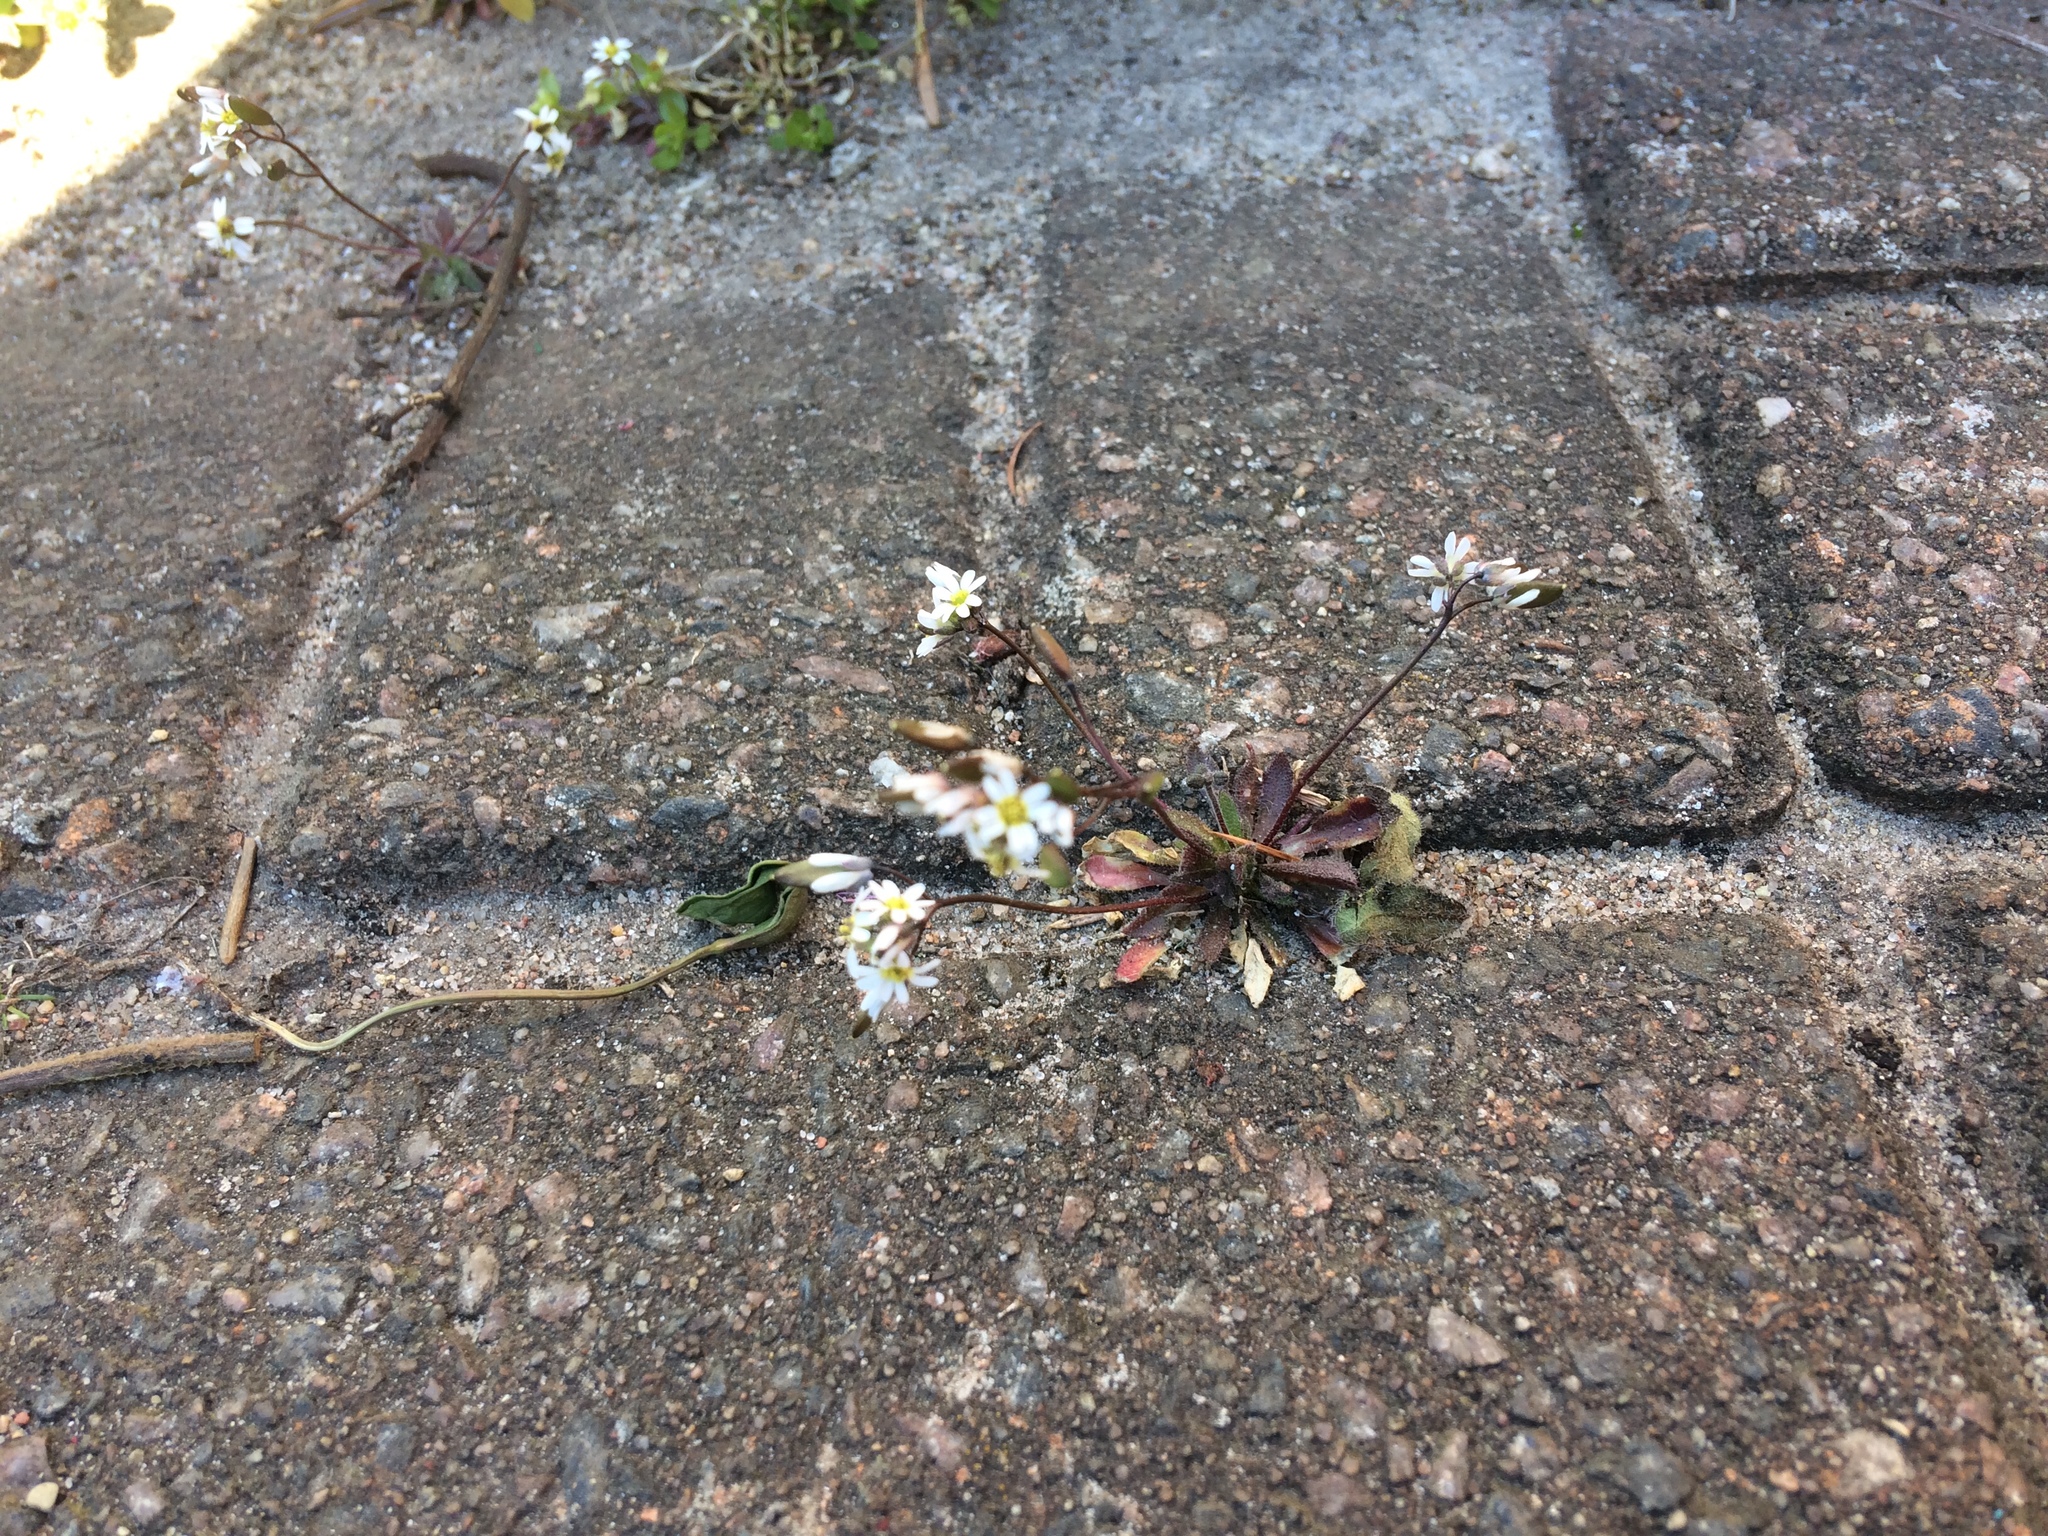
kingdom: Plantae
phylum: Tracheophyta
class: Magnoliopsida
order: Brassicales
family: Brassicaceae
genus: Draba
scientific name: Draba verna
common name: Spring draba
